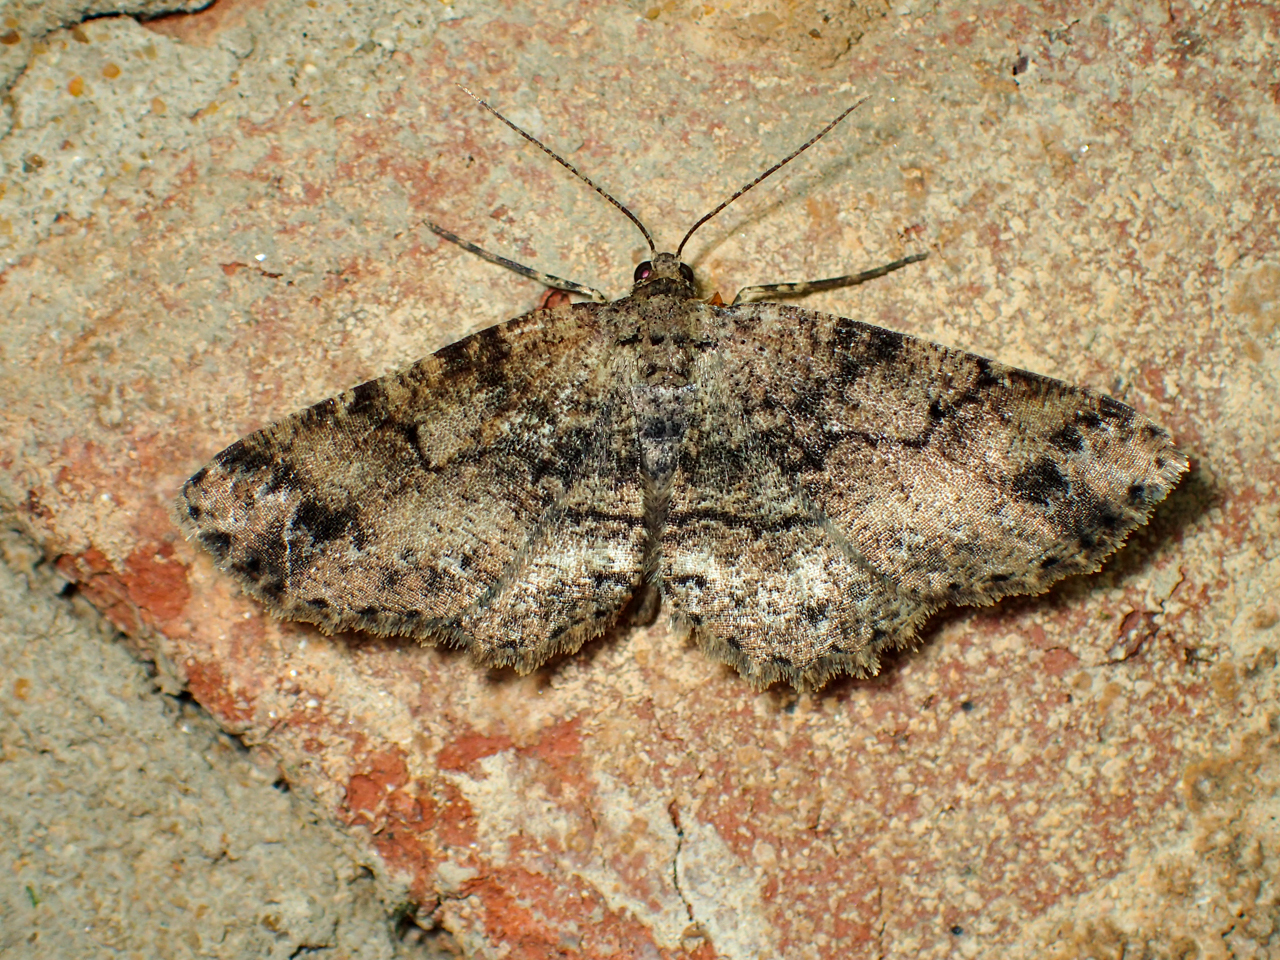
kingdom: Animalia
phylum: Arthropoda
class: Insecta
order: Lepidoptera
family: Geometridae
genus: Melanolophia
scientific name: Melanolophia canadaria
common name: Canadian melanolophia
